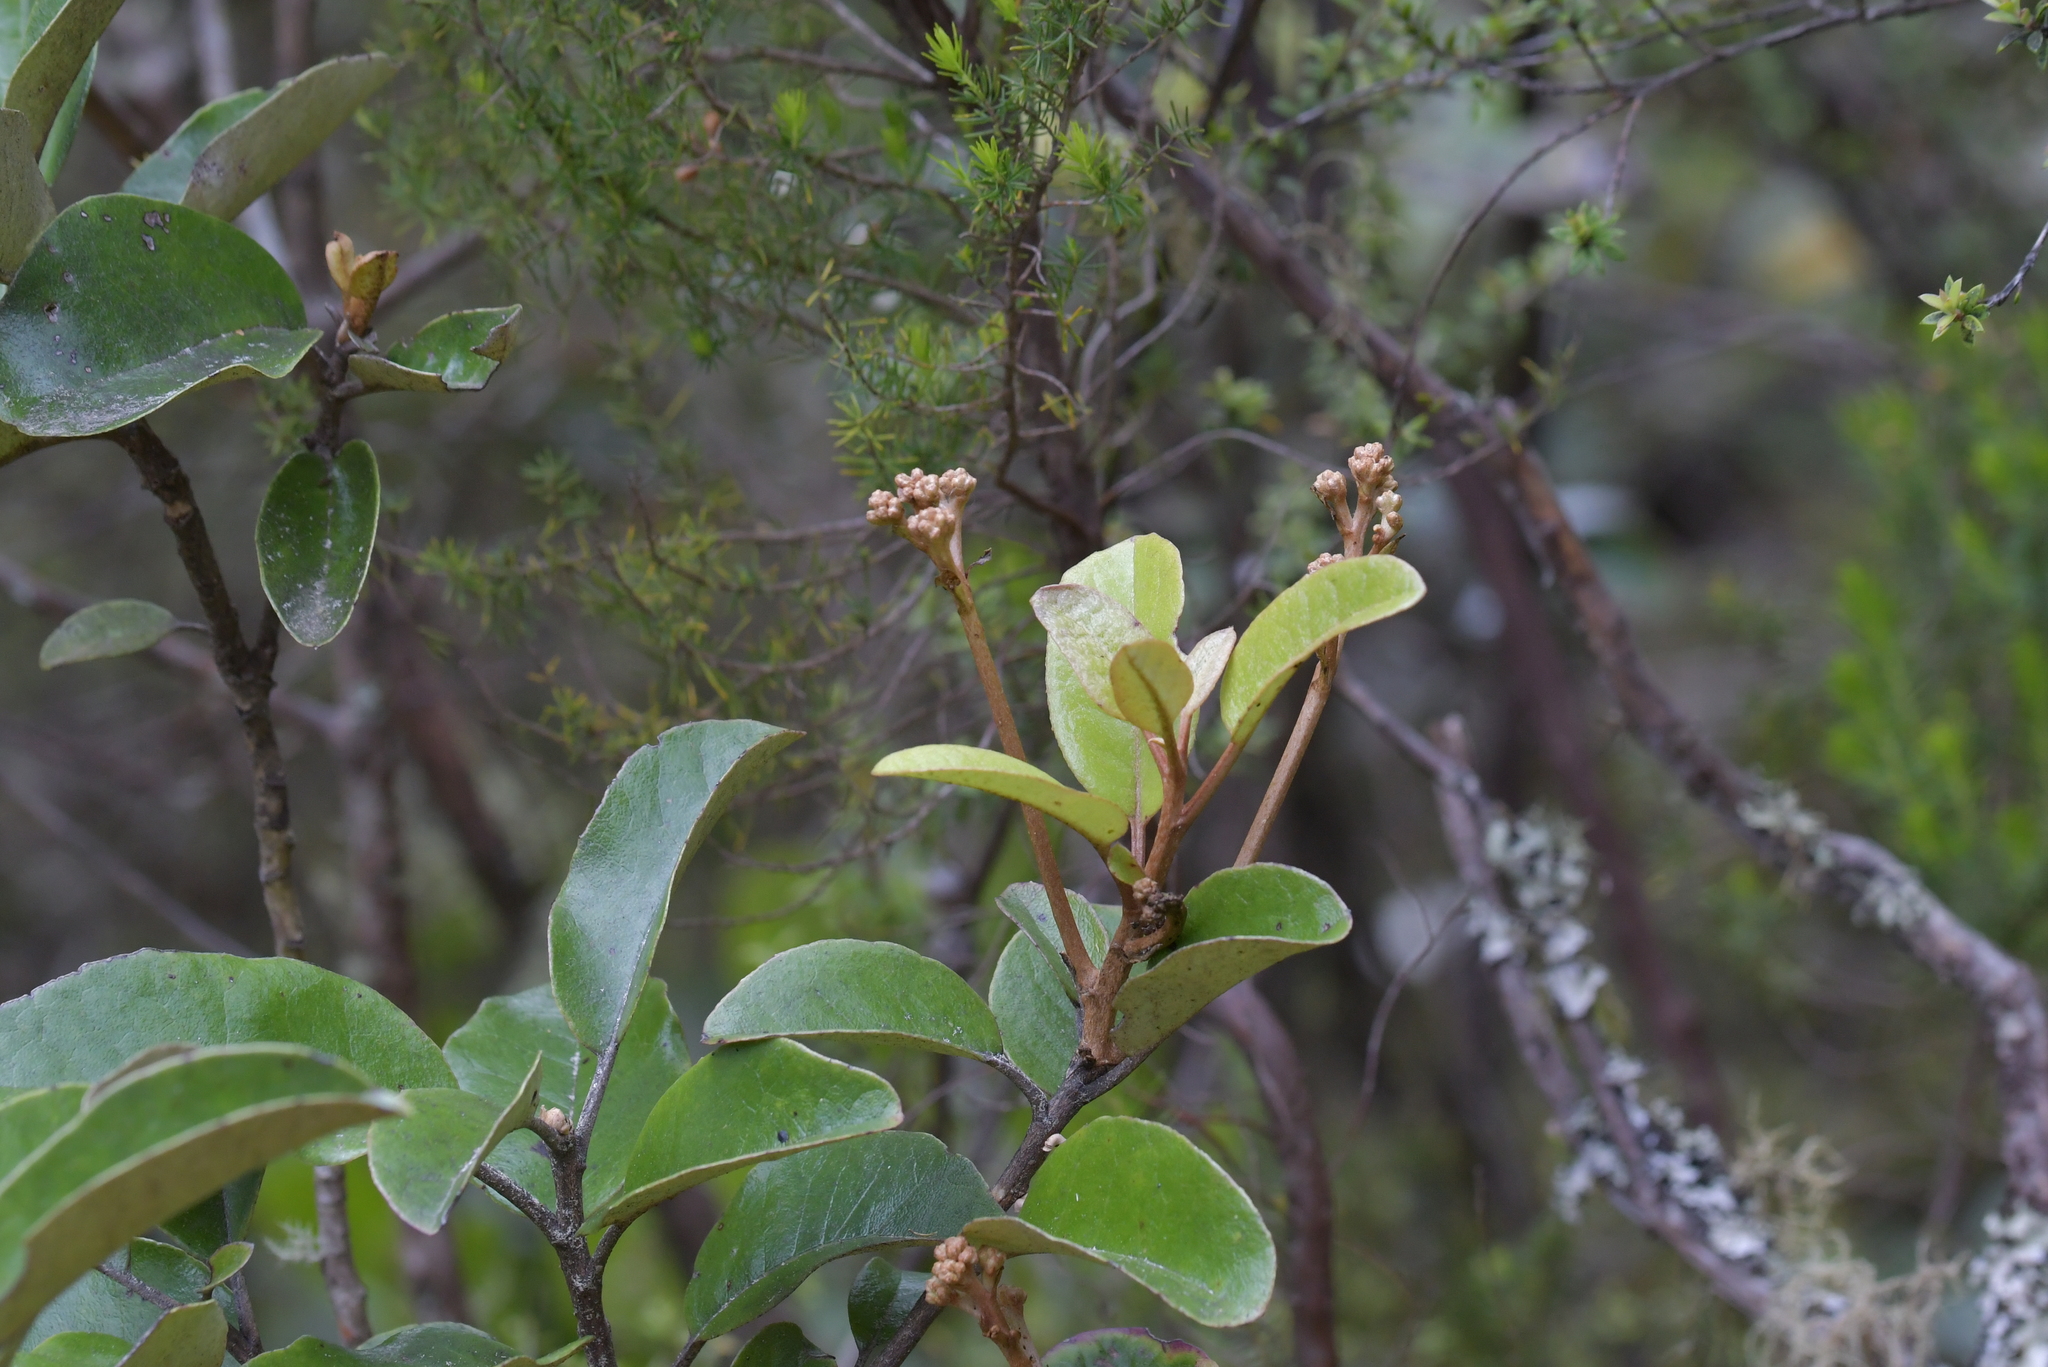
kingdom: Plantae
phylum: Tracheophyta
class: Magnoliopsida
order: Asterales
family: Asteraceae
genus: Olearia
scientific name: Olearia furfuracea
